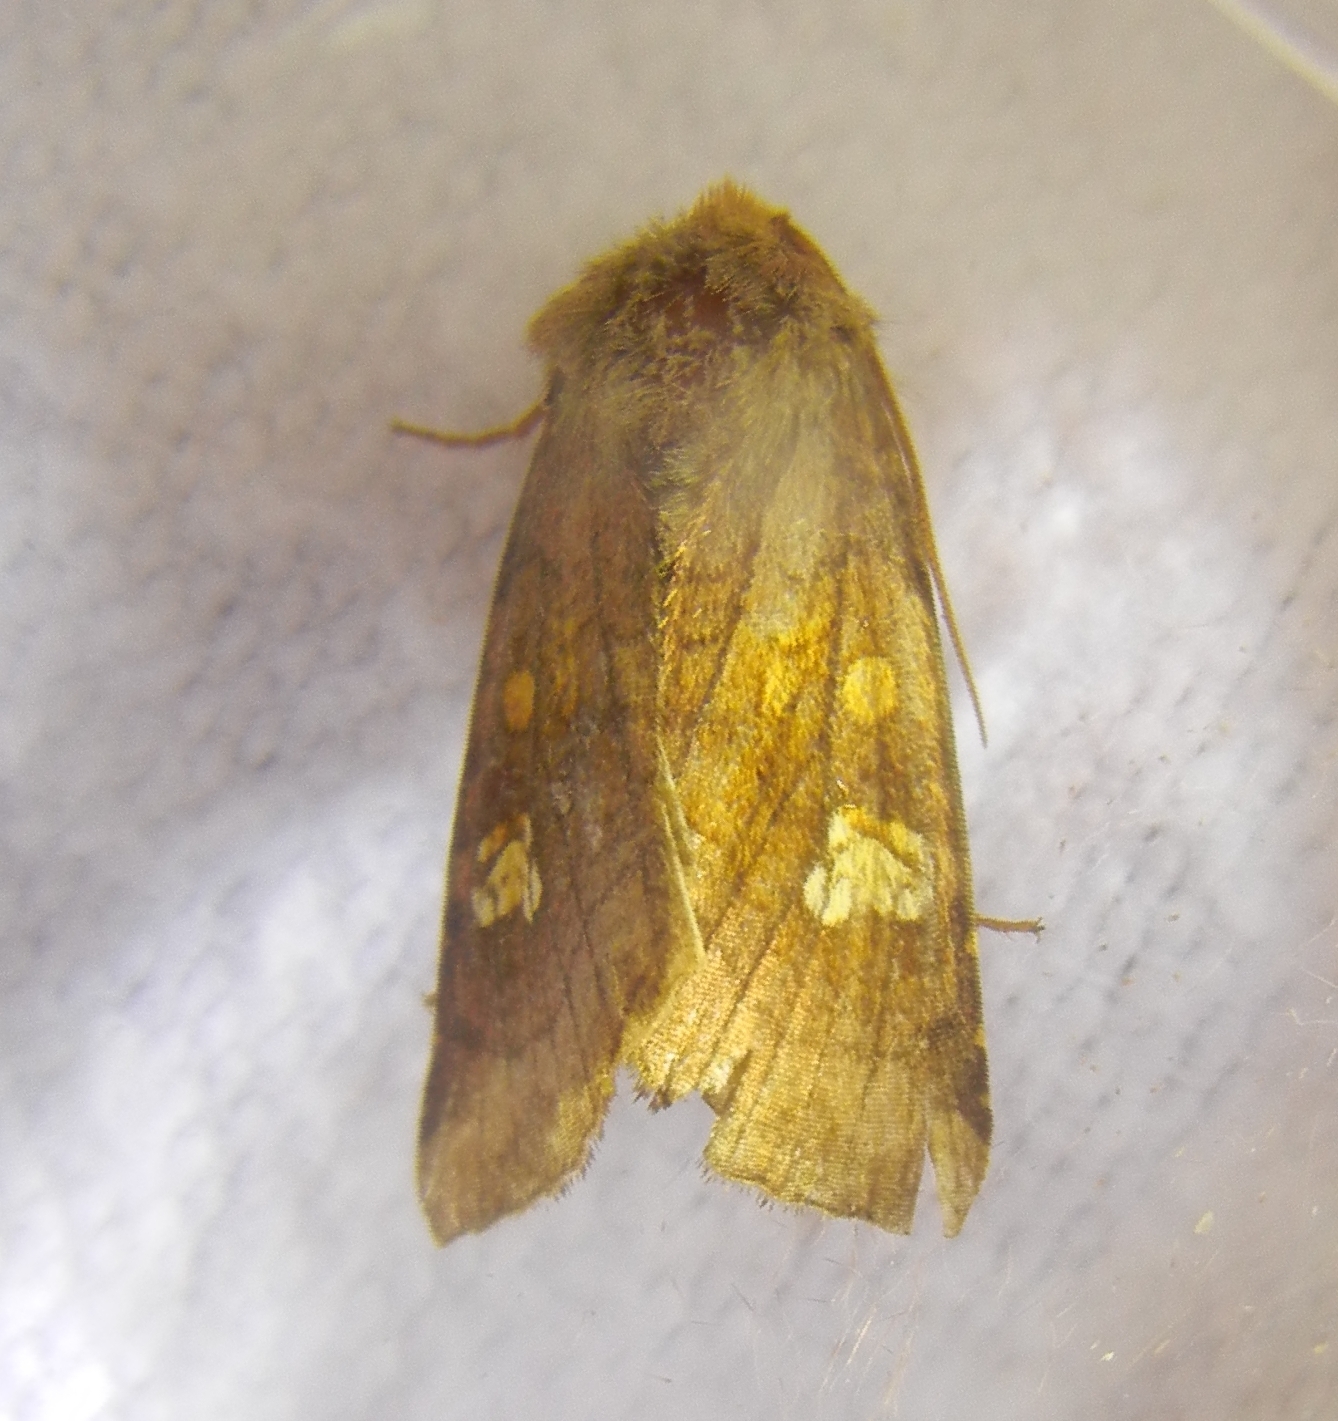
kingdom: Animalia
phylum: Arthropoda
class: Insecta
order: Lepidoptera
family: Noctuidae
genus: Amphipoea
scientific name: Amphipoea oculea
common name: Ear moth
